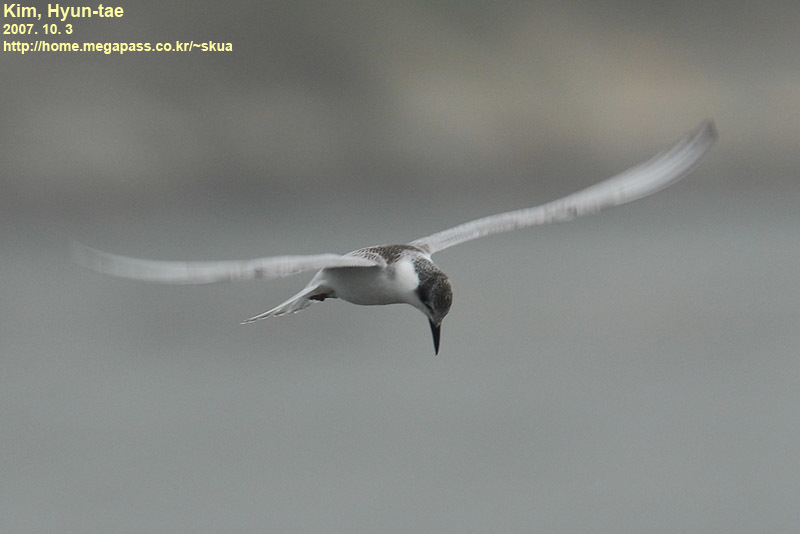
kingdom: Animalia
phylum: Chordata
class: Aves
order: Charadriiformes
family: Laridae
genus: Chlidonias
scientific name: Chlidonias hybrida
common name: Whiskered tern
